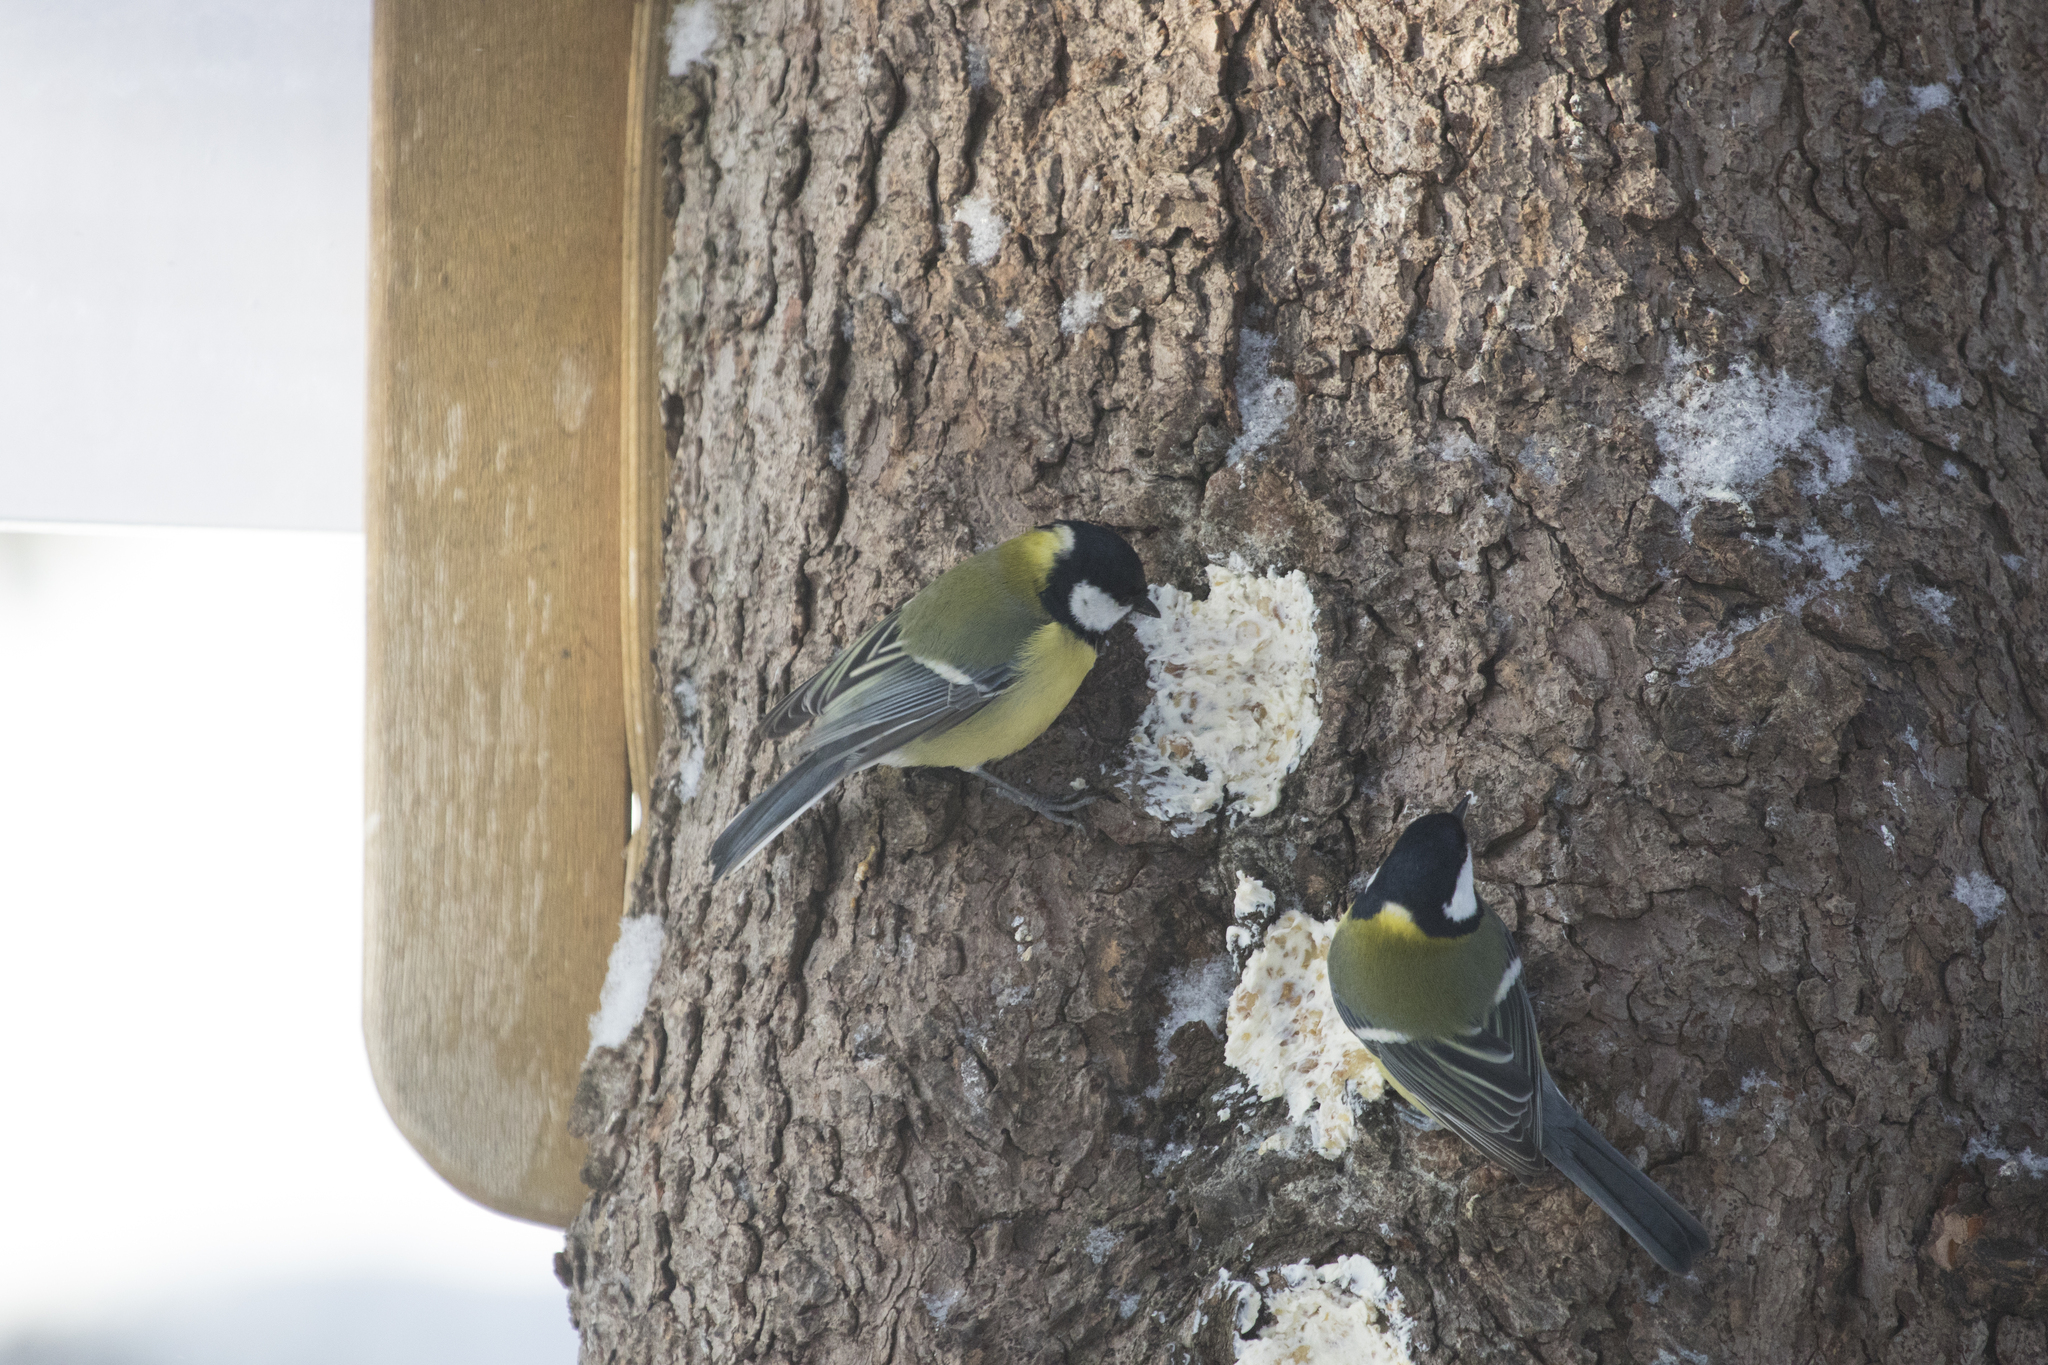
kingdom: Animalia
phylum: Chordata
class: Aves
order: Passeriformes
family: Paridae
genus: Parus
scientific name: Parus major
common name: Great tit
